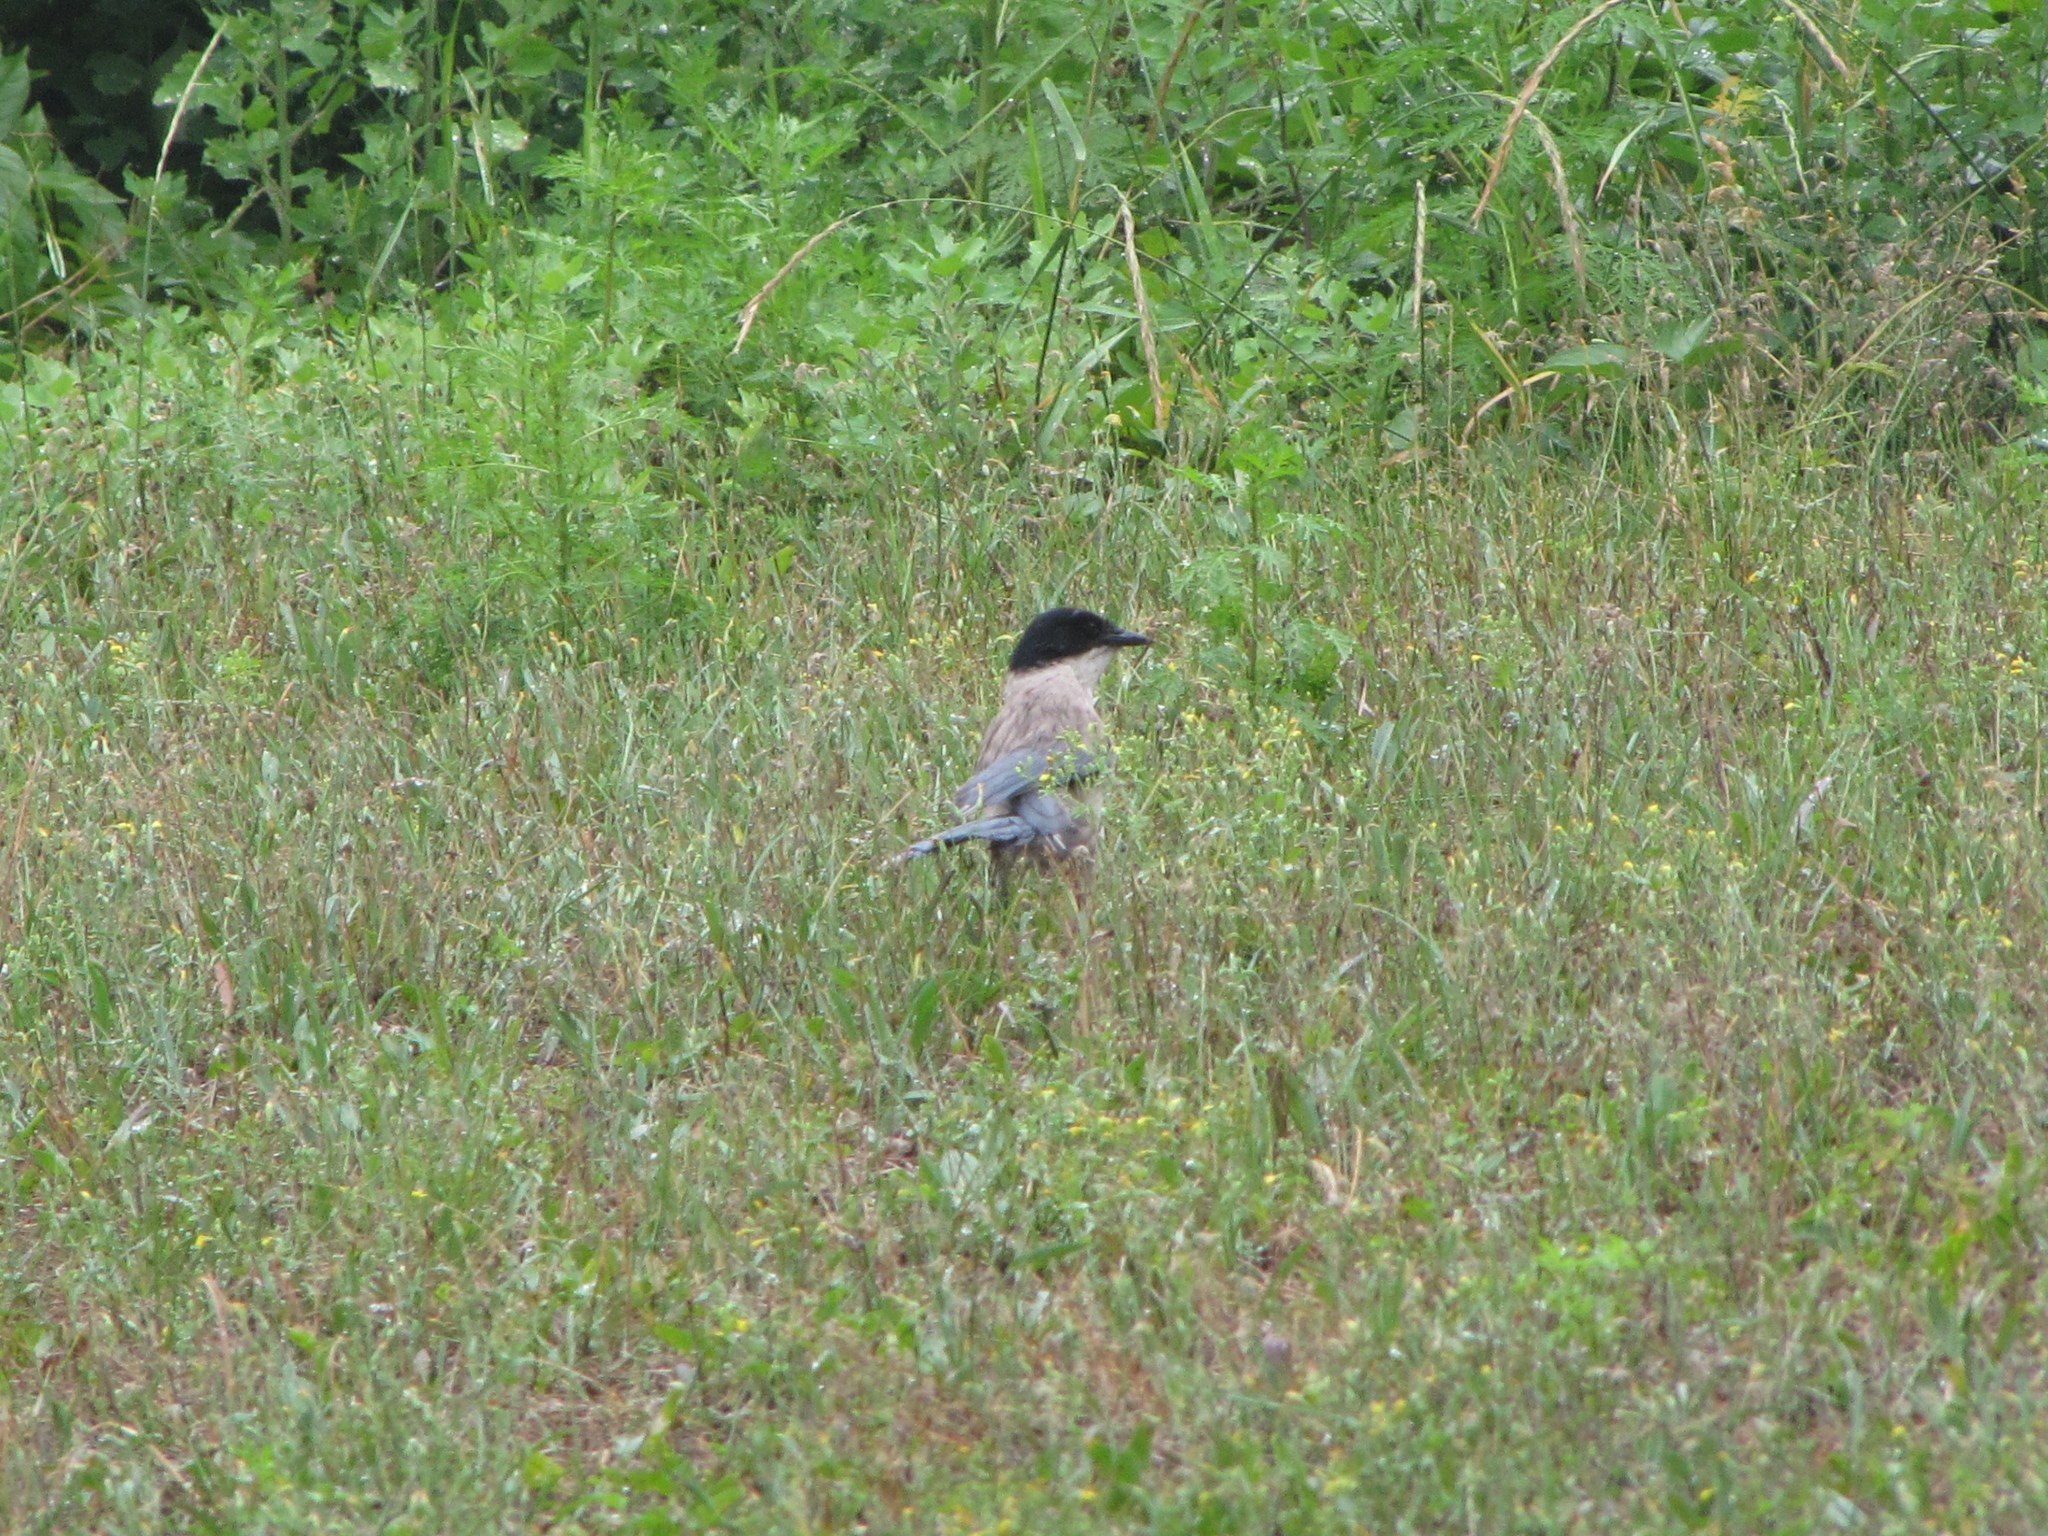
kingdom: Animalia
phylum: Chordata
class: Aves
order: Passeriformes
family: Corvidae
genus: Cyanopica
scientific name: Cyanopica cyanus
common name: Azure-winged magpie
